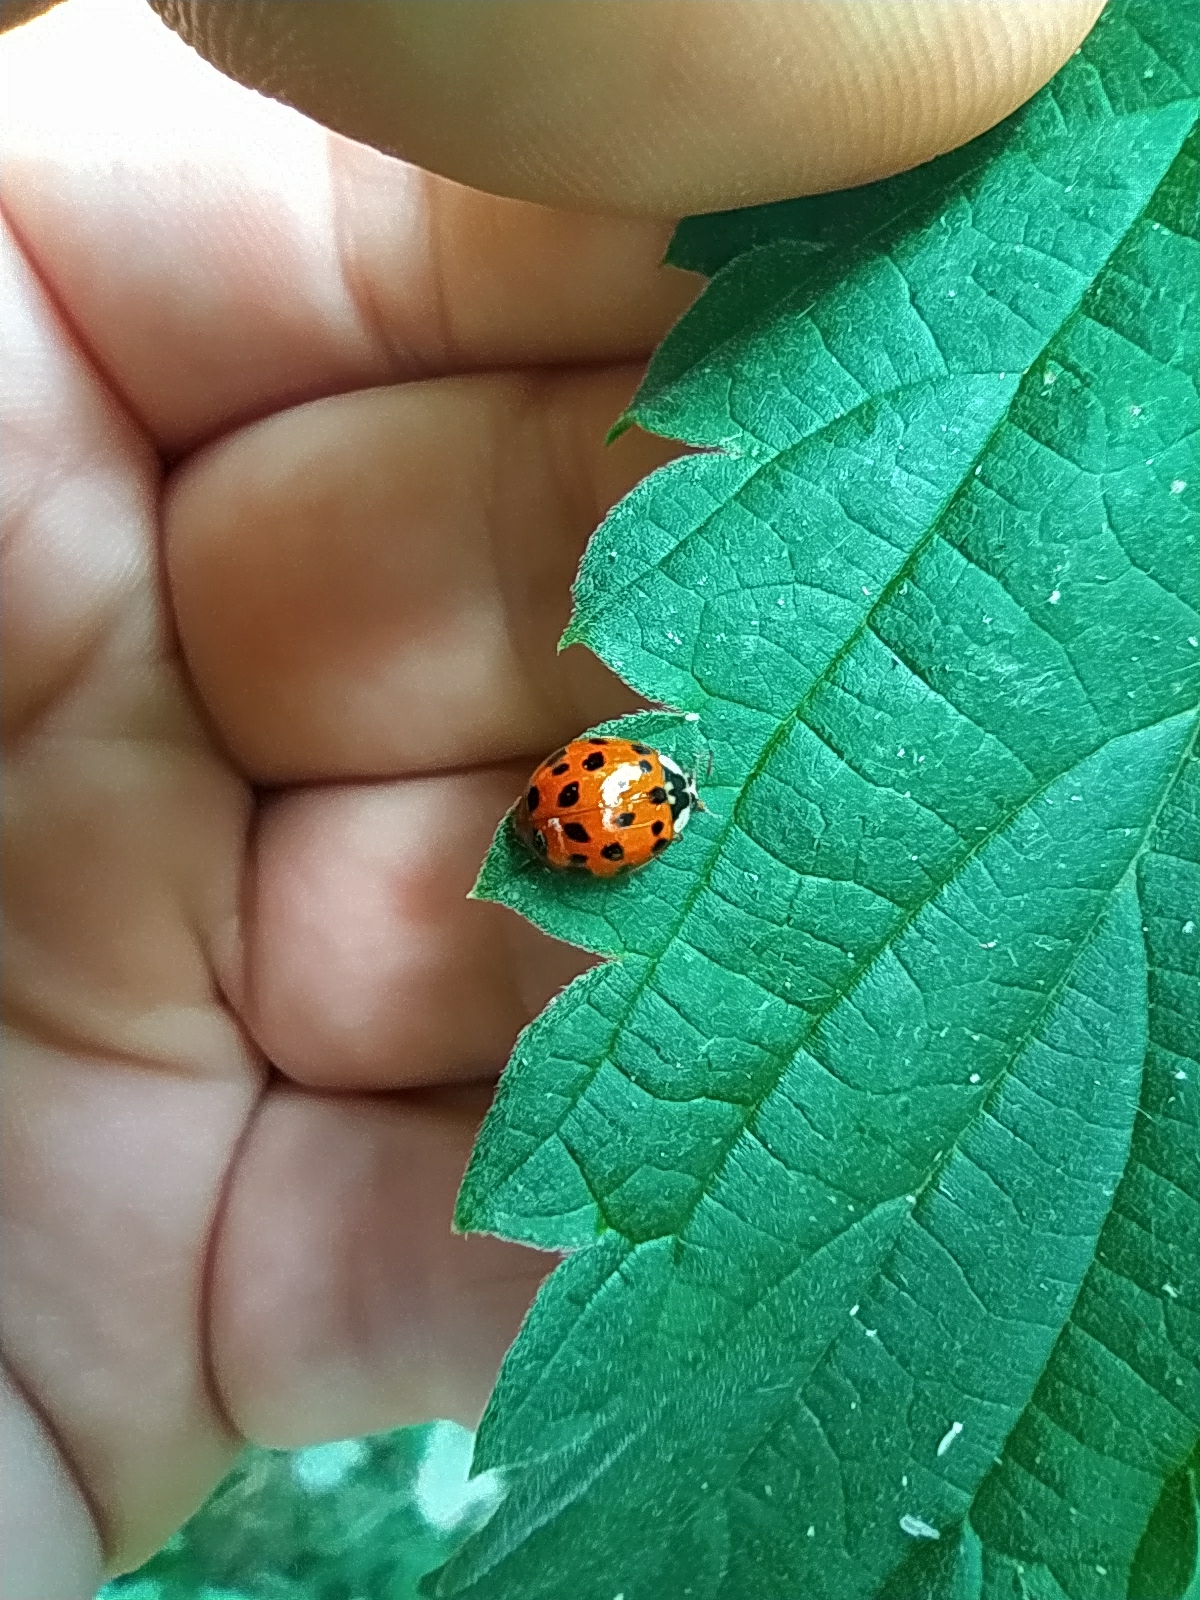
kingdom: Animalia
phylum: Arthropoda
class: Insecta
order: Coleoptera
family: Coccinellidae
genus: Harmonia
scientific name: Harmonia axyridis
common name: Harlequin ladybird
